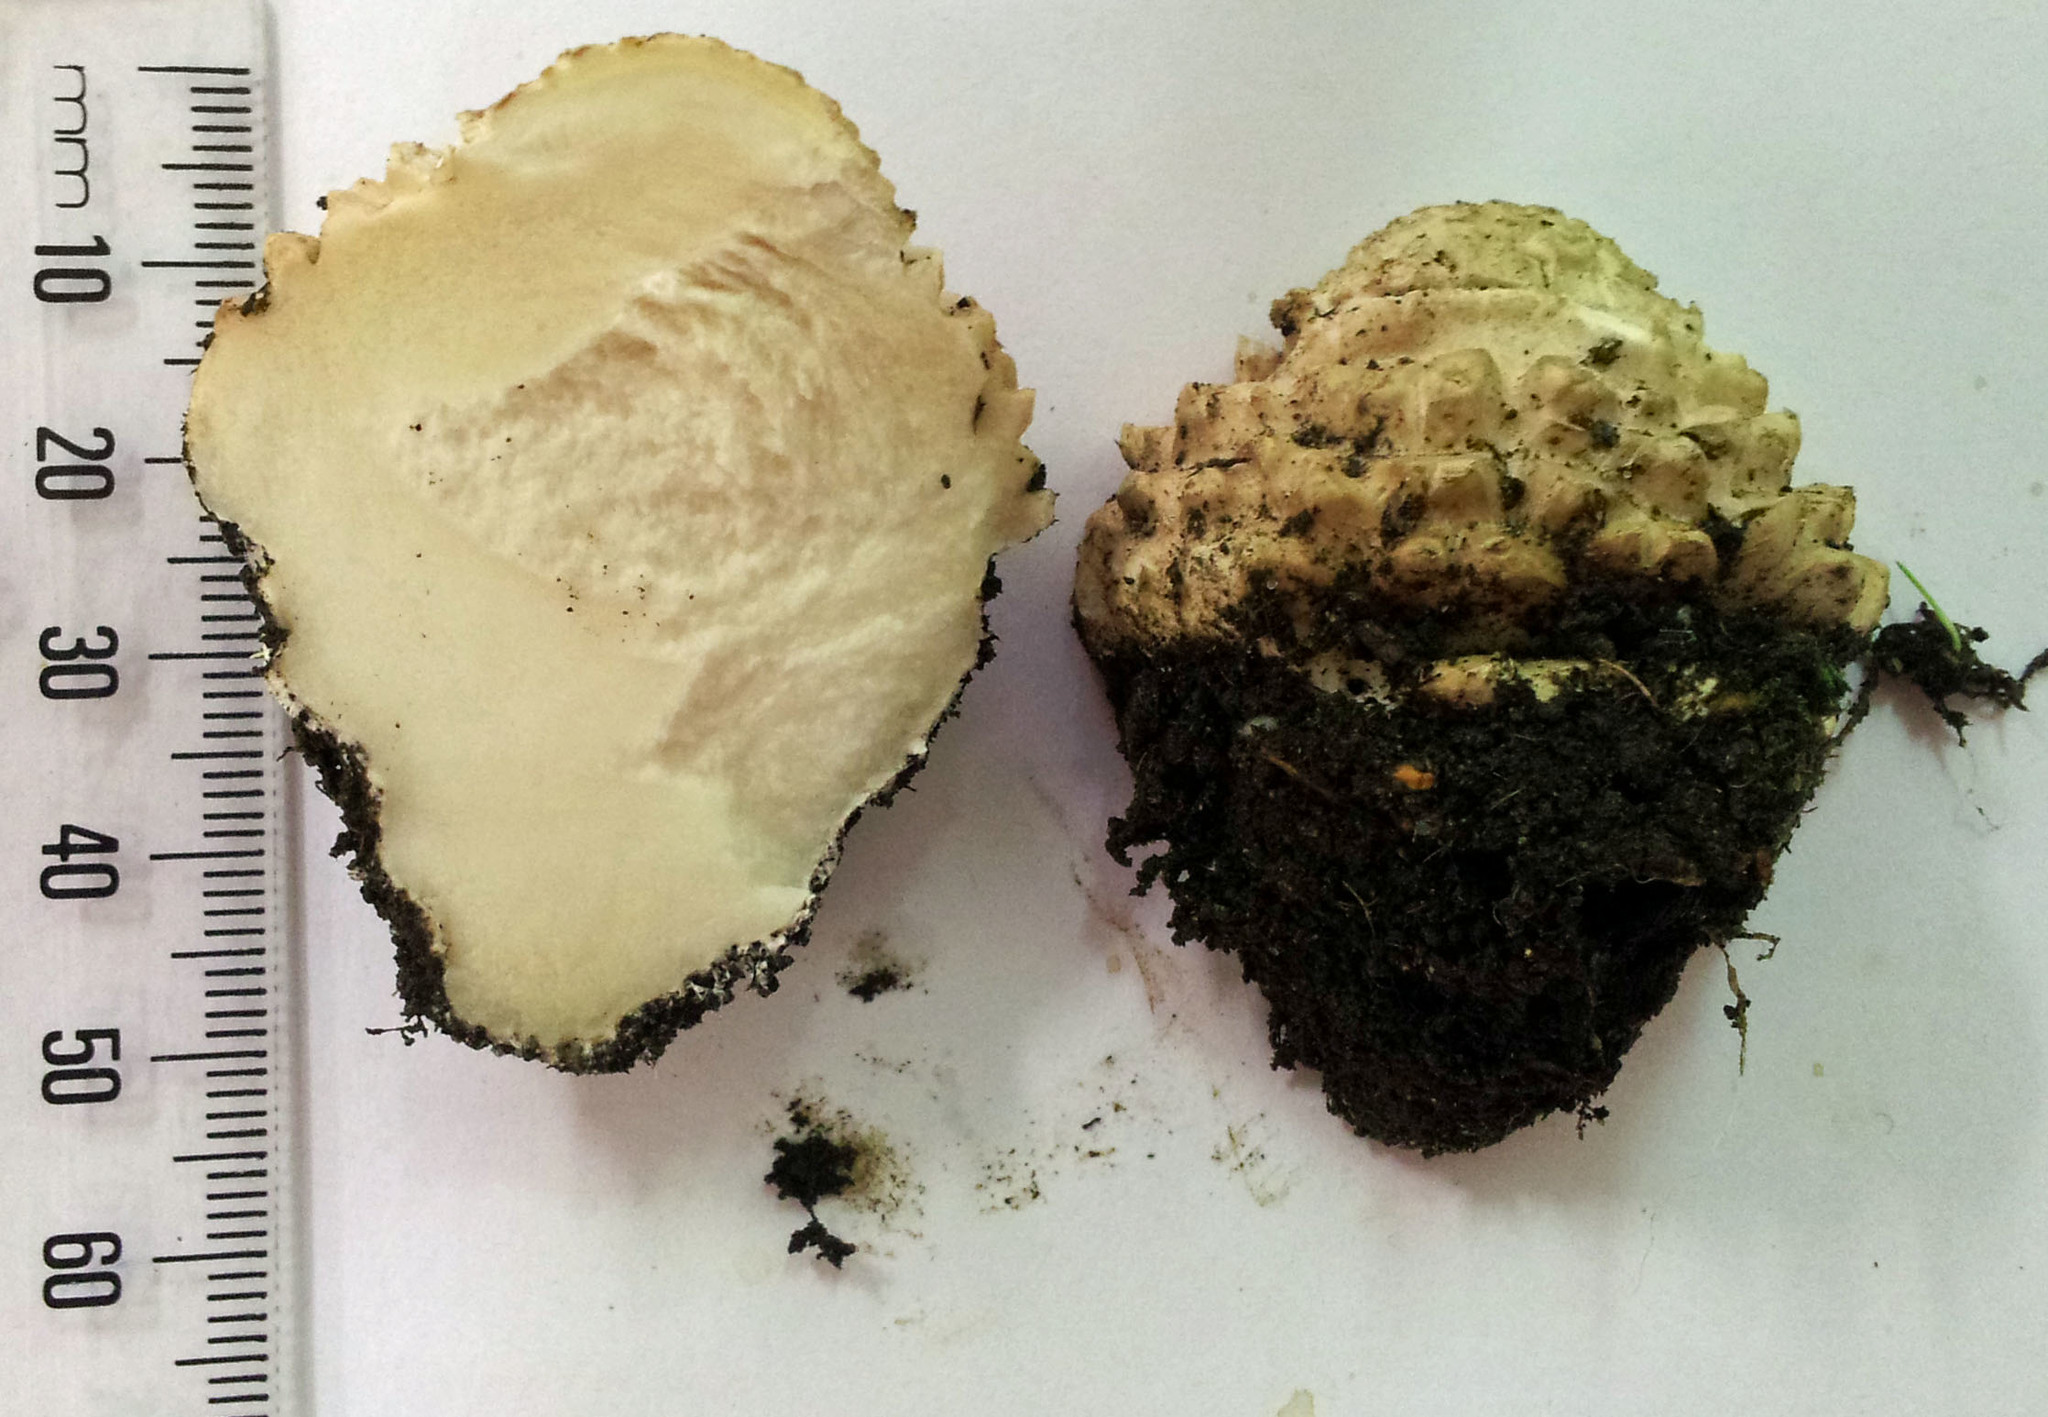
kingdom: Fungi
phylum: Basidiomycota
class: Agaricomycetes
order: Agaricales
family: Amanitaceae
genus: Amanita
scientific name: Amanita muscaria
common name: Fly agaric
